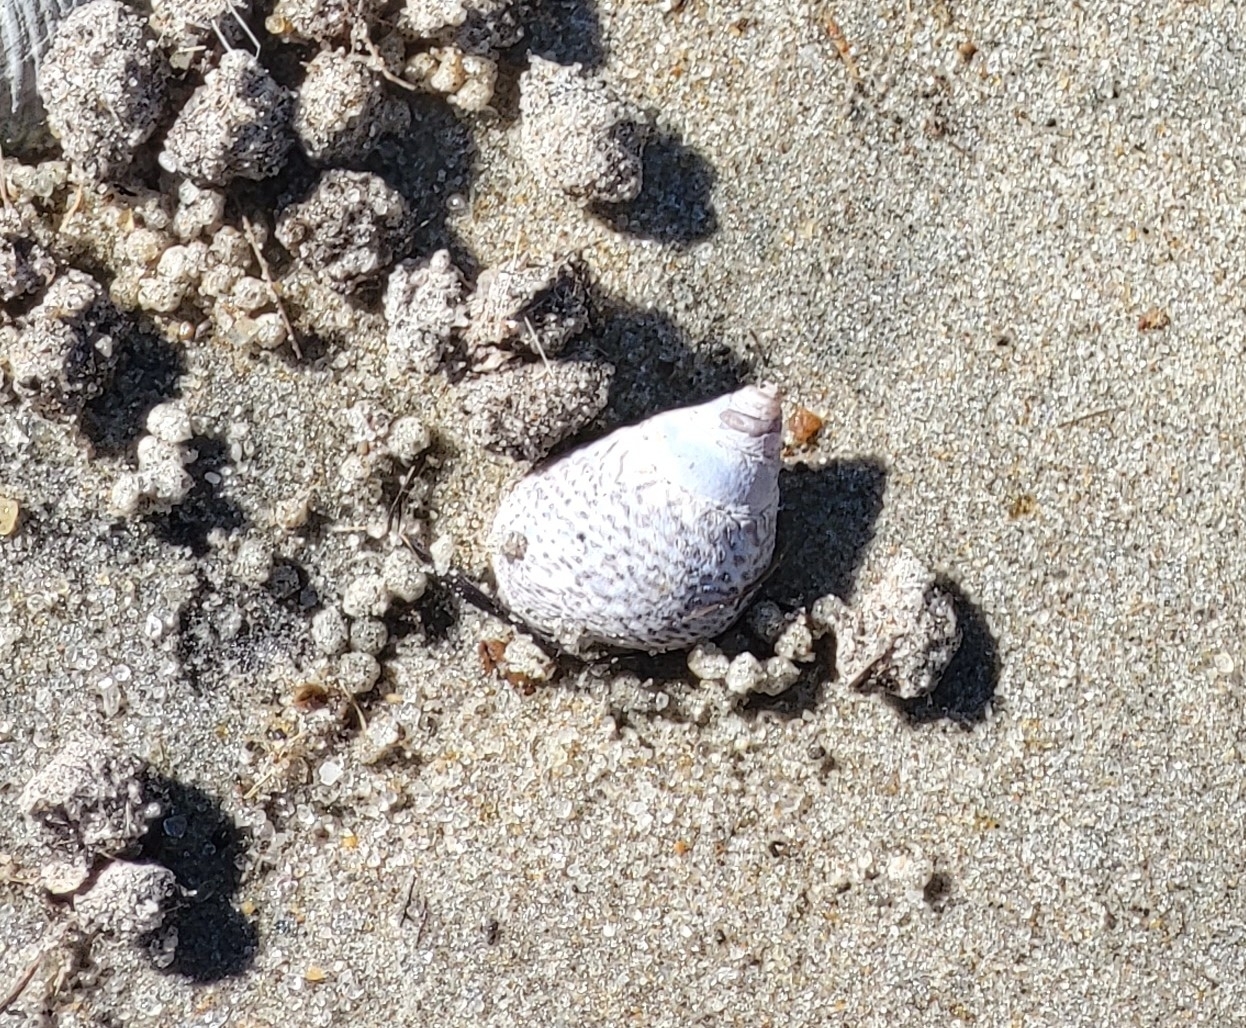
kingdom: Animalia
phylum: Mollusca
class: Gastropoda
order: Littorinimorpha
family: Littorinidae
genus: Littoraria
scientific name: Littoraria irrorata
